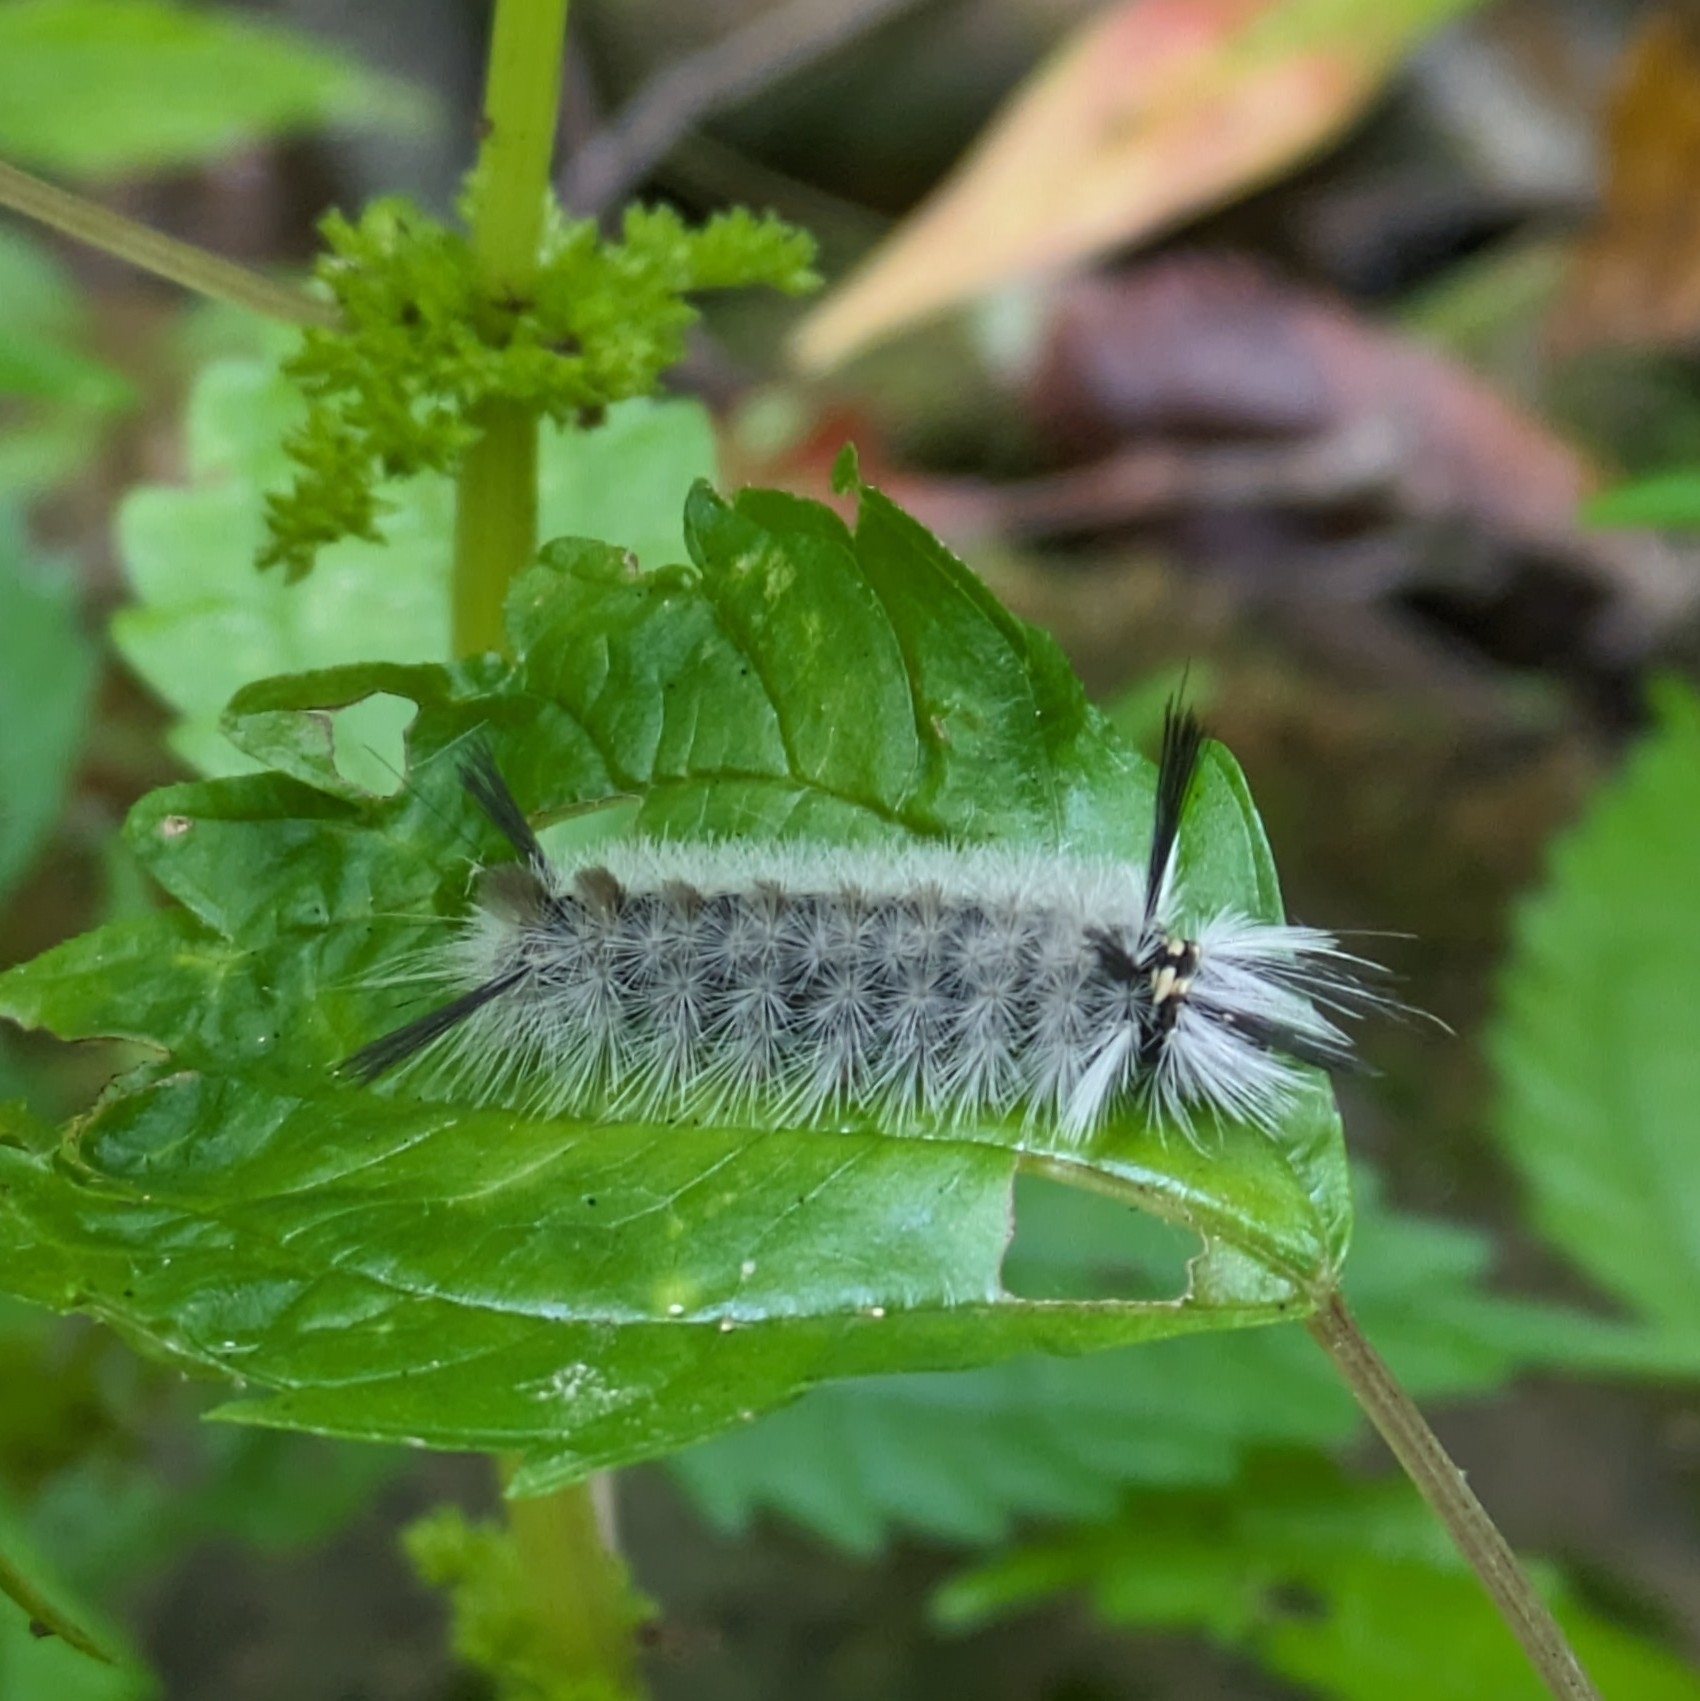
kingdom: Animalia
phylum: Arthropoda
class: Insecta
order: Lepidoptera
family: Erebidae
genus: Halysidota
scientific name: Halysidota tessellaris
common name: Banded tussock moth
